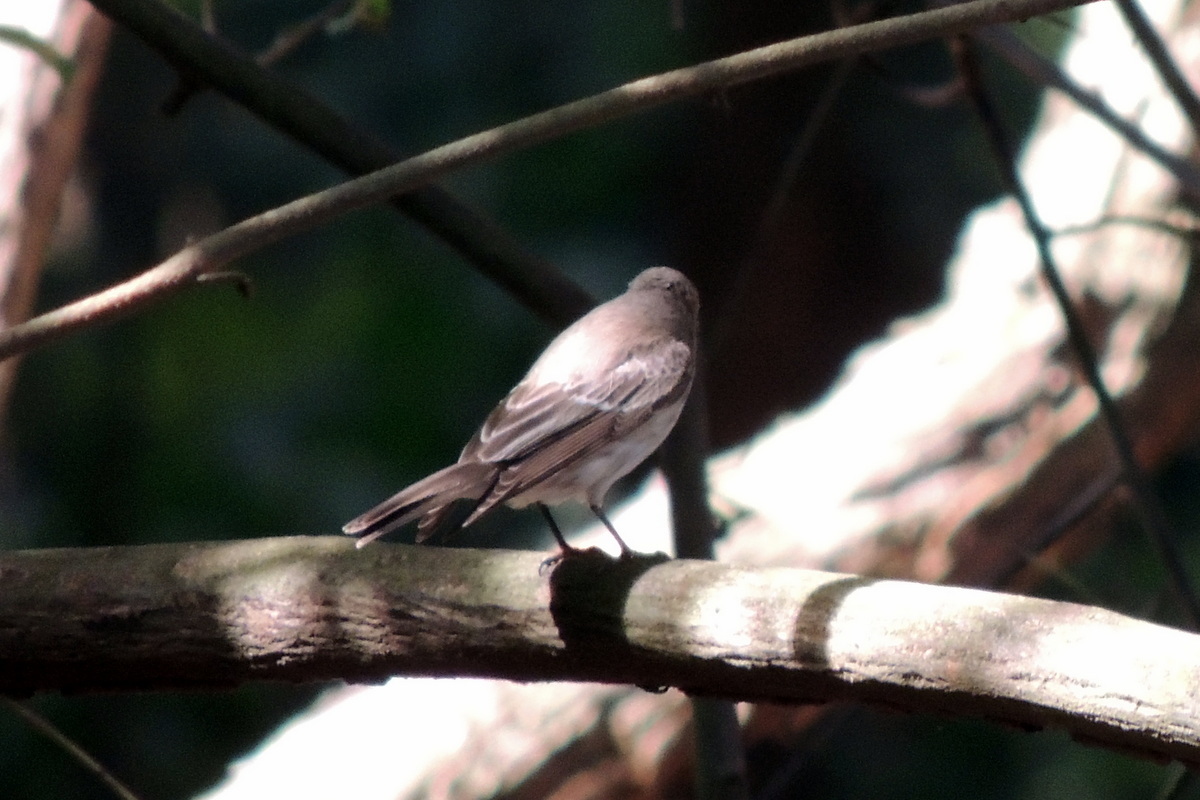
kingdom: Animalia
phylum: Chordata
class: Aves
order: Passeriformes
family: Muscicapidae
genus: Muscicapa
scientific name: Muscicapa striata
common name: Spotted flycatcher
